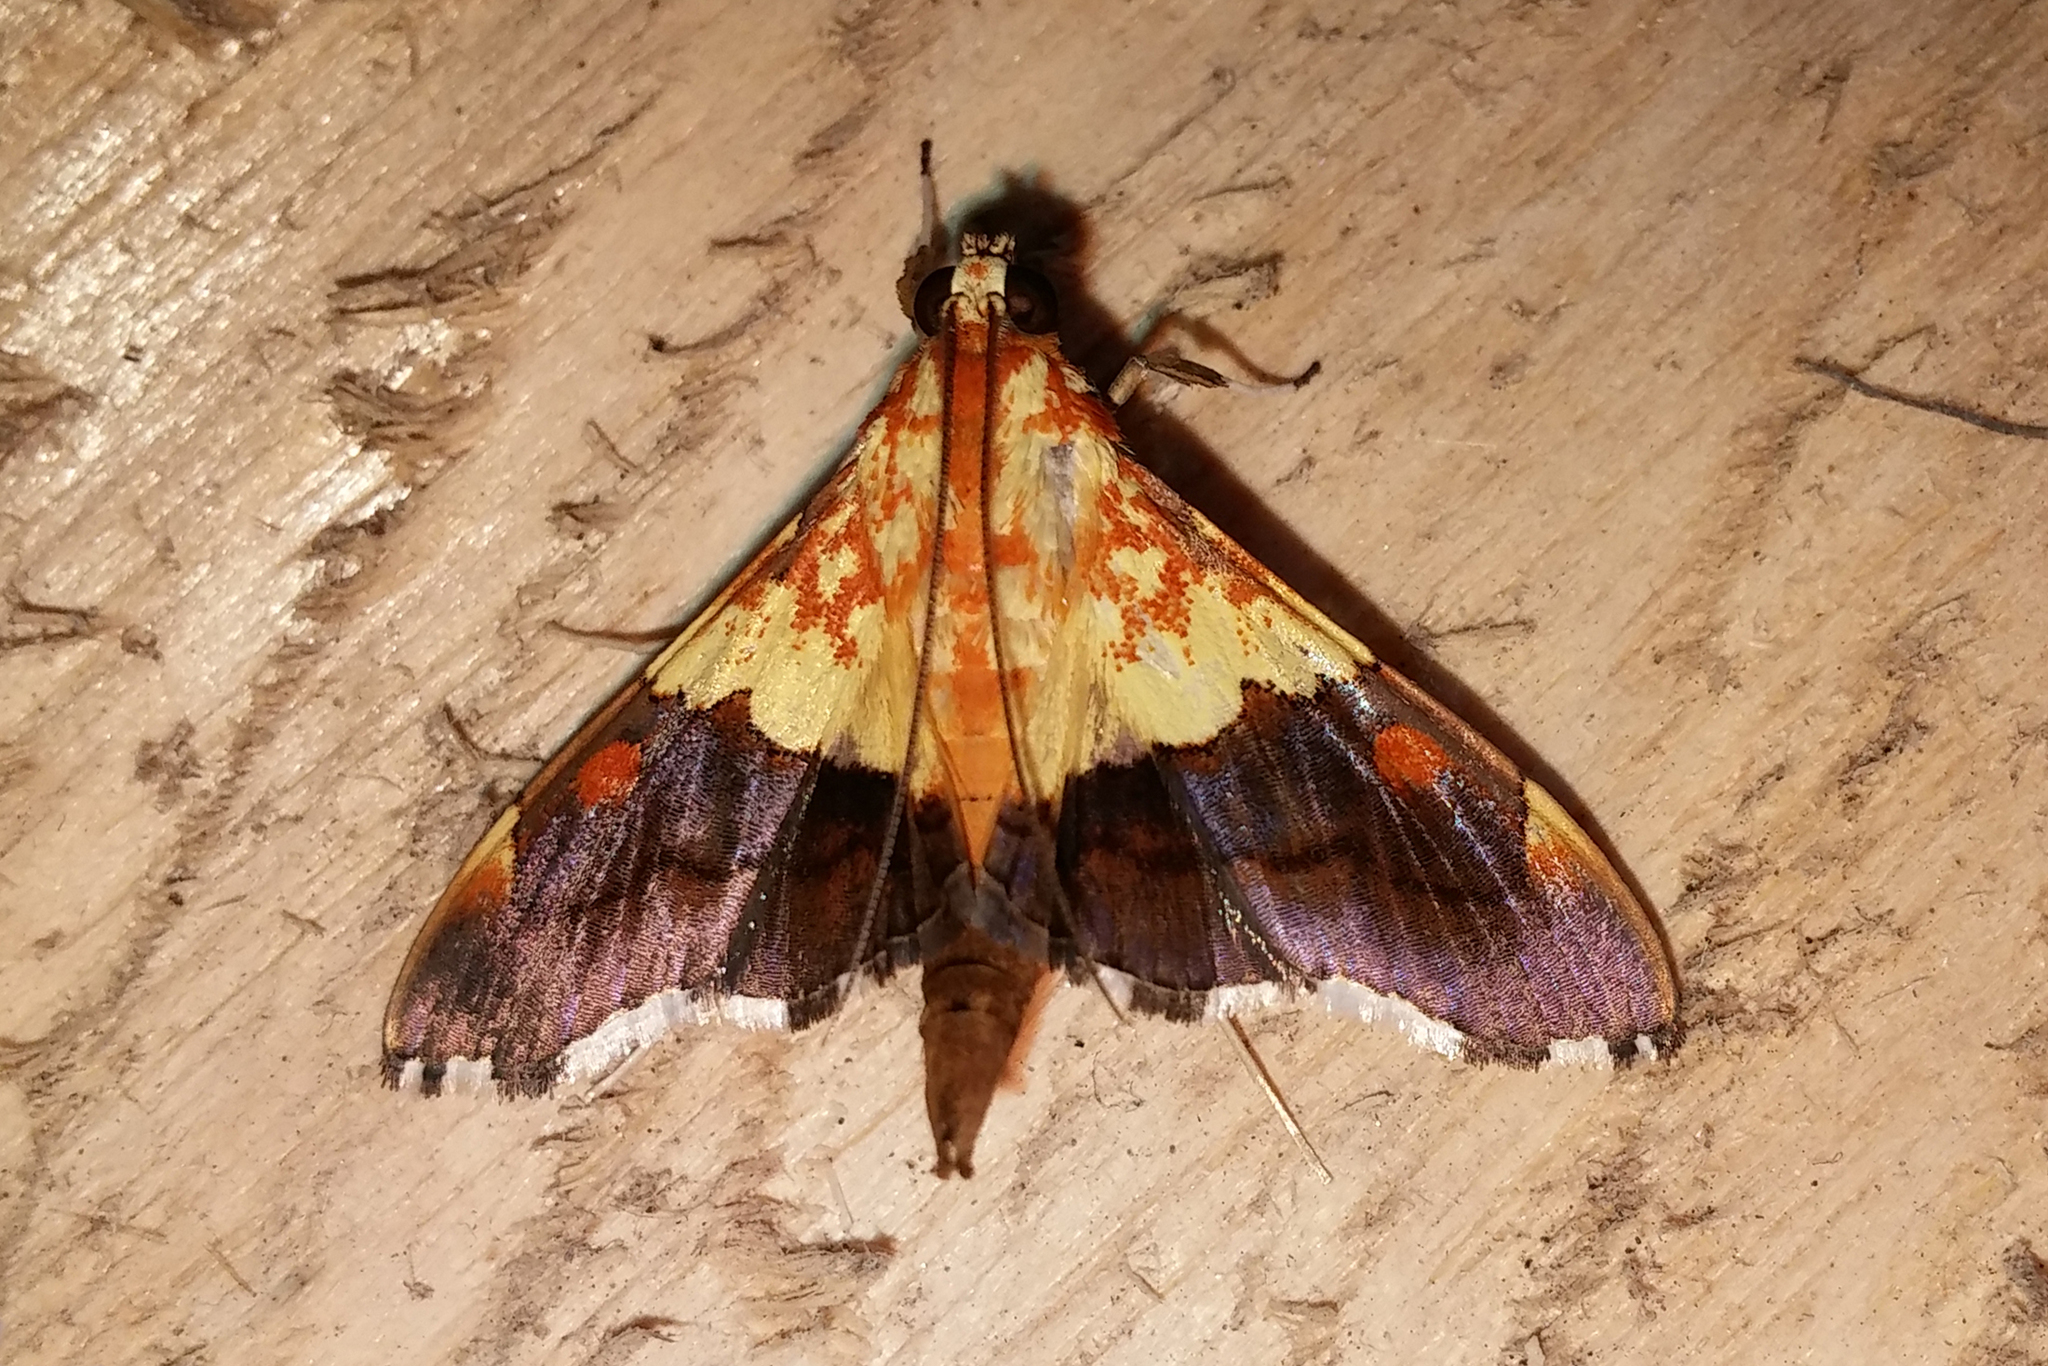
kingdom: Animalia
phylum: Arthropoda
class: Insecta
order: Lepidoptera
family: Crambidae
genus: Agrotera
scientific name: Agrotera semipictalis
